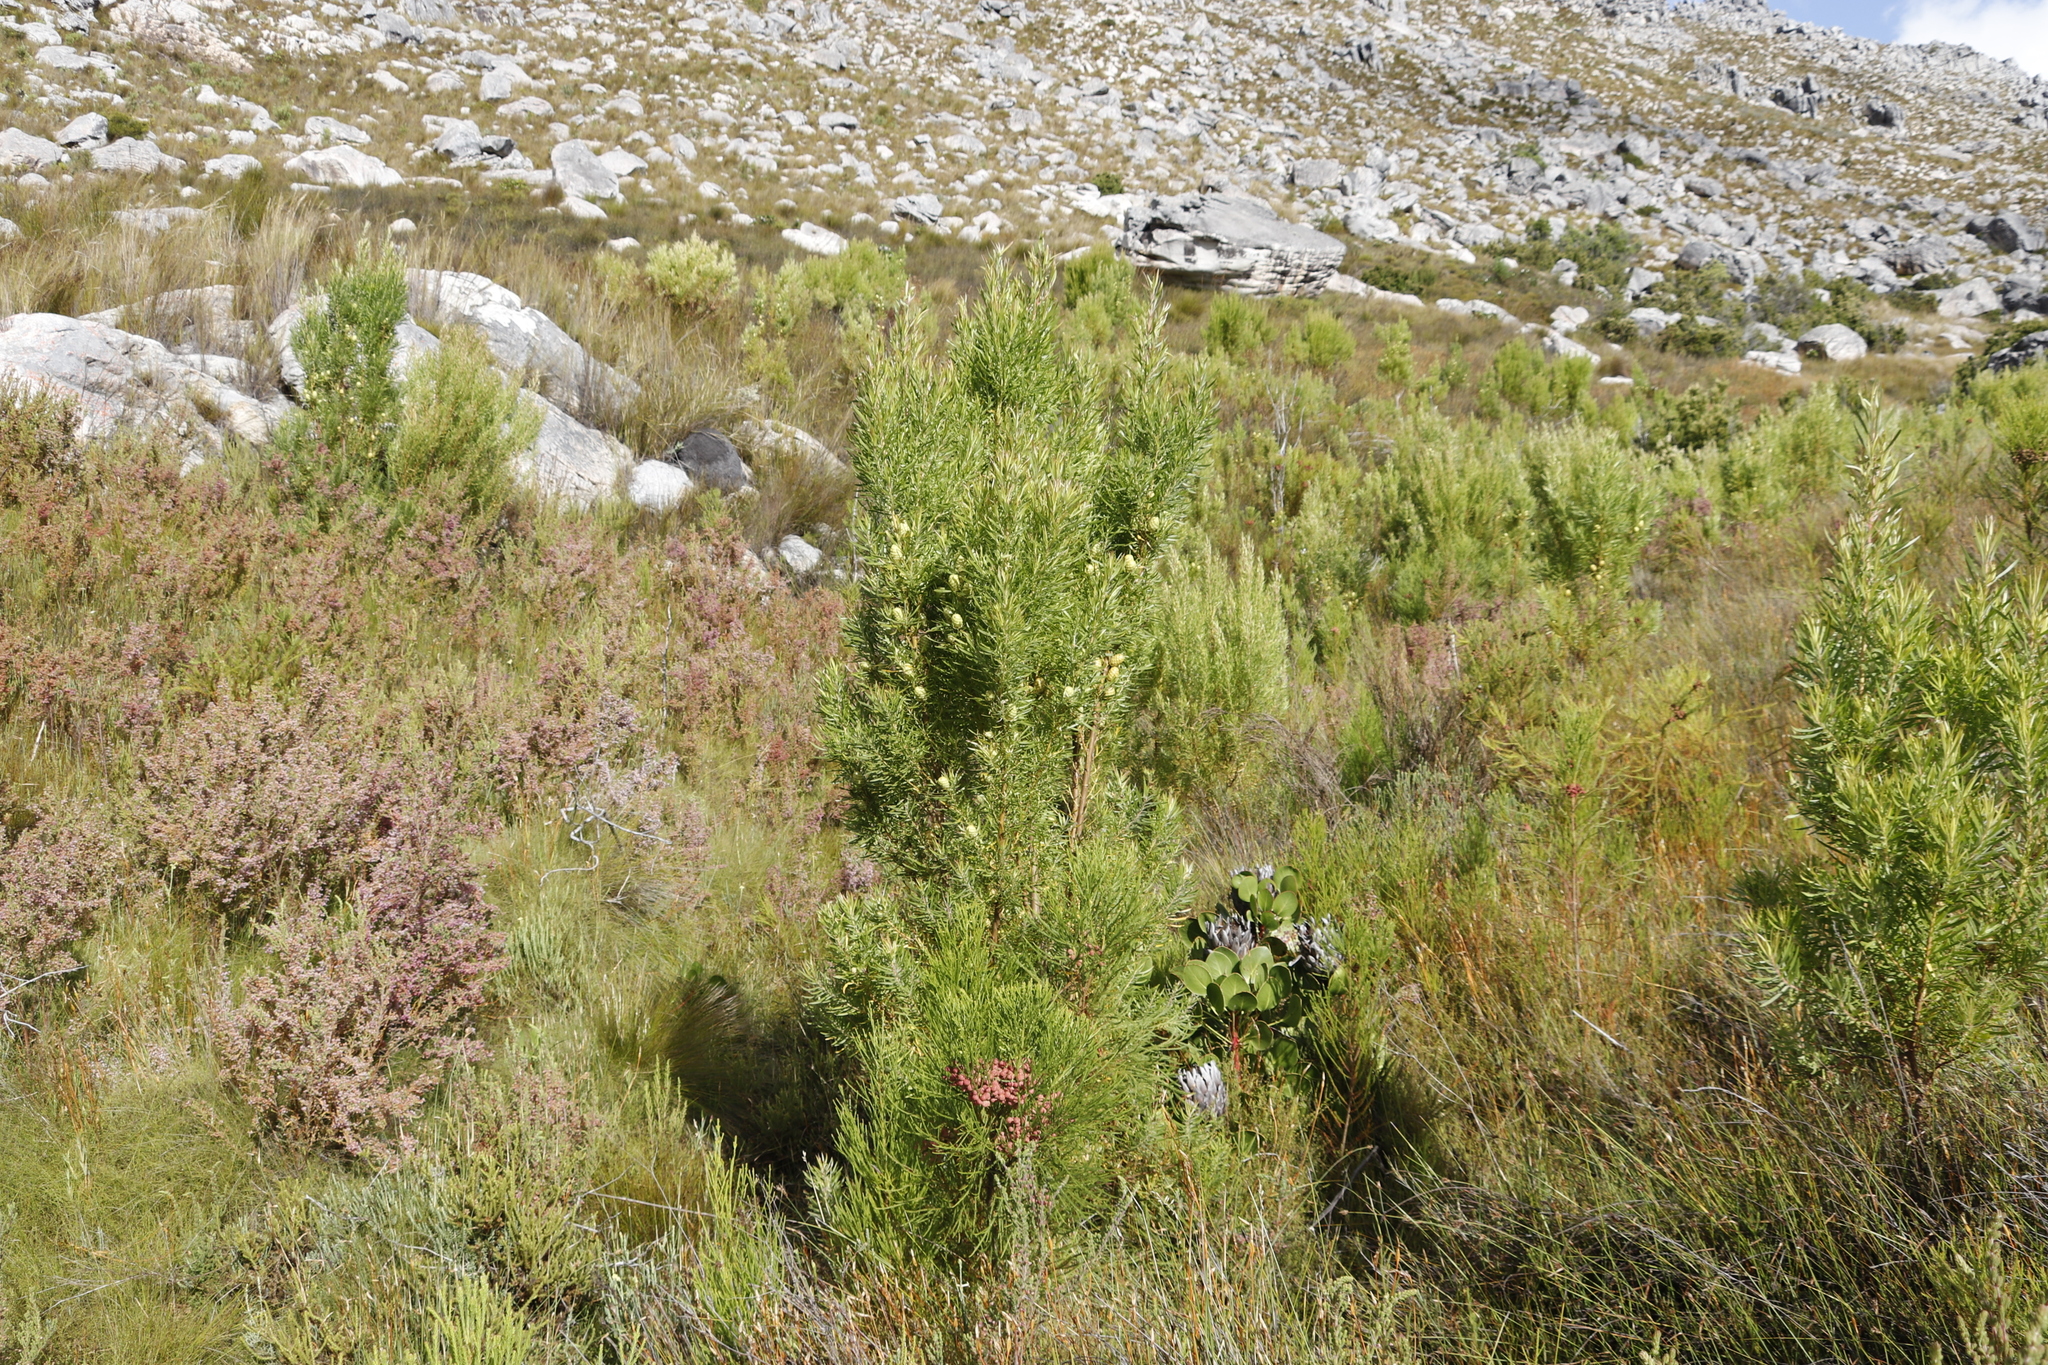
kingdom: Plantae
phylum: Tracheophyta
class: Magnoliopsida
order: Proteales
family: Proteaceae
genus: Leucadendron
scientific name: Leucadendron salicifolium
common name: Common stream conebush
